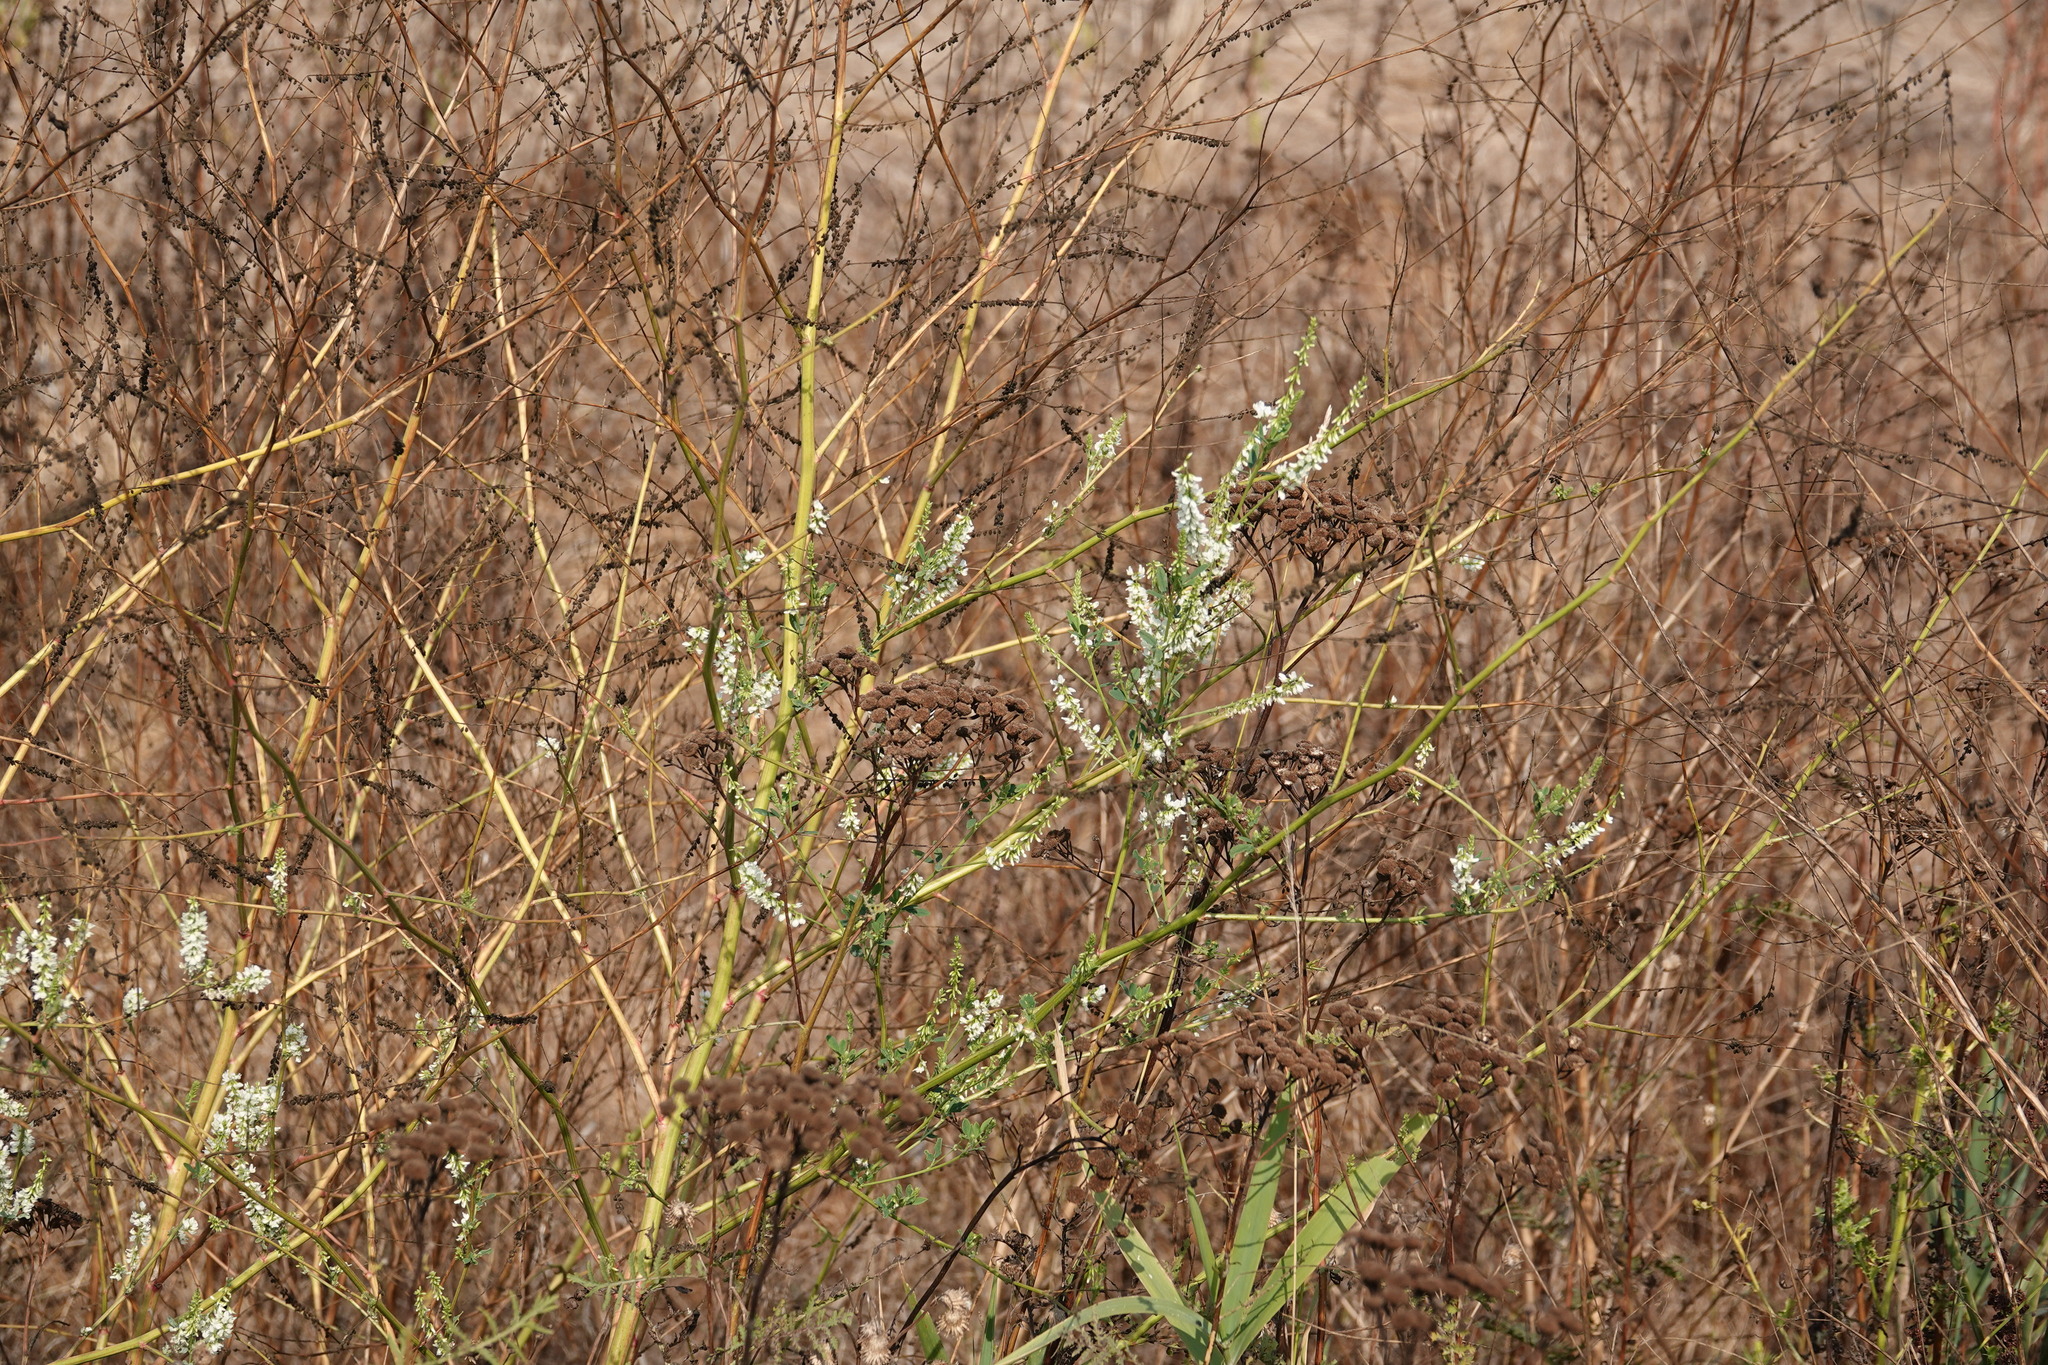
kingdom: Plantae
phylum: Tracheophyta
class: Magnoliopsida
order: Fabales
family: Fabaceae
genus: Melilotus
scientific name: Melilotus albus
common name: White melilot
